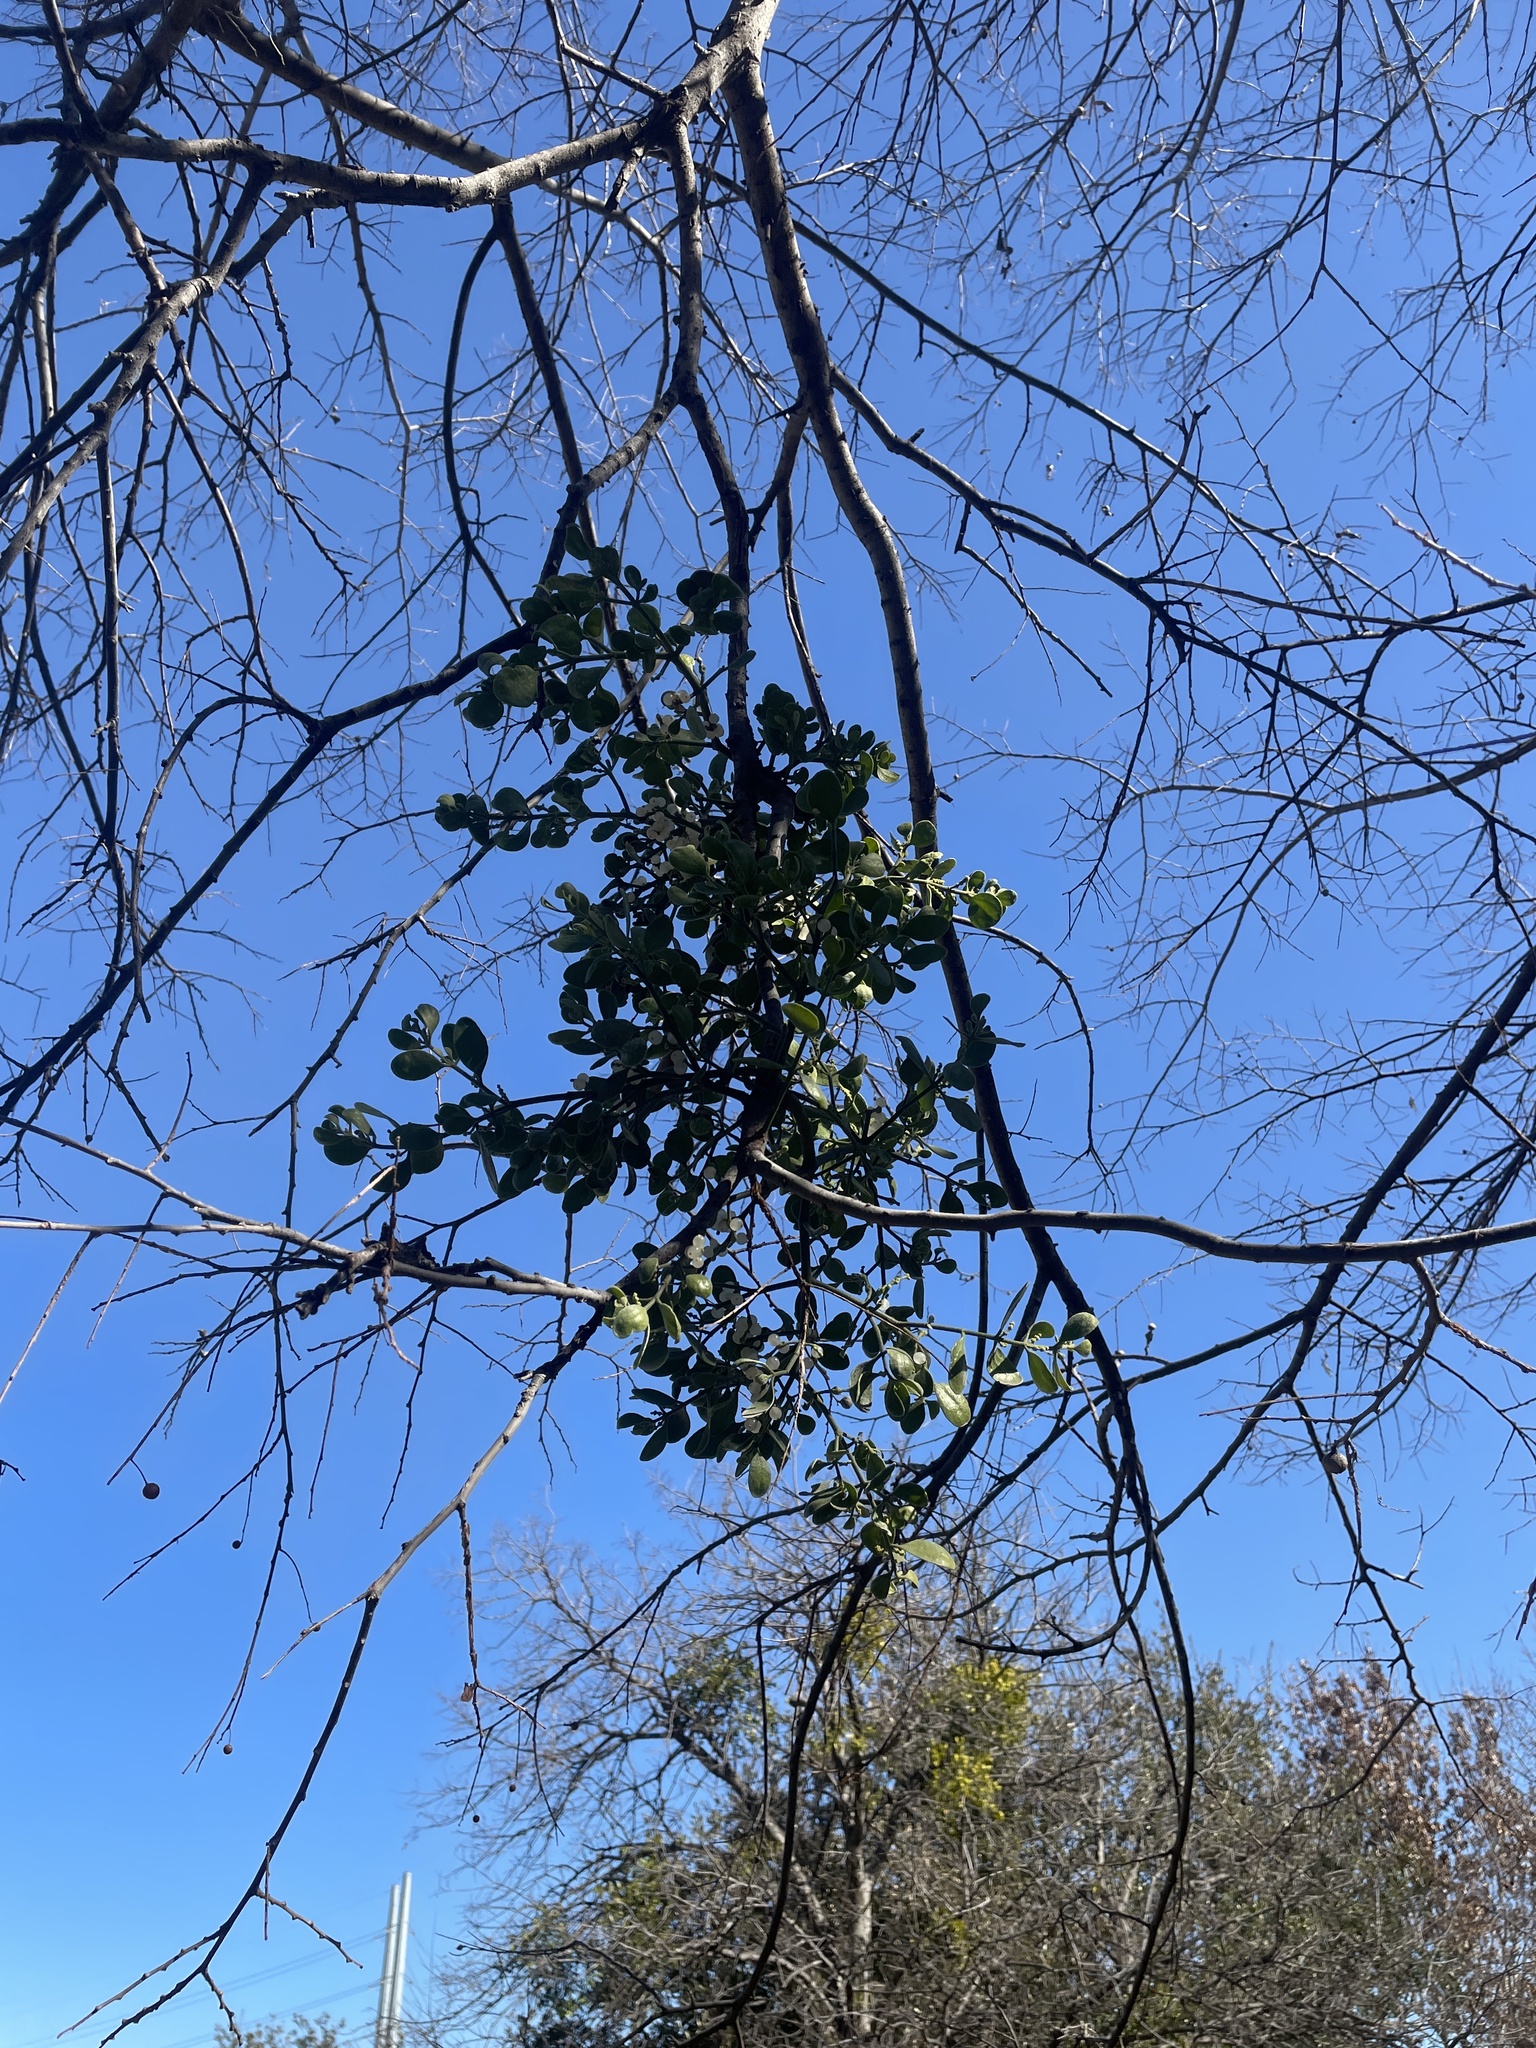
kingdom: Plantae
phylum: Tracheophyta
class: Magnoliopsida
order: Santalales
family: Viscaceae
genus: Phoradendron
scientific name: Phoradendron leucarpum
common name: Pacific mistletoe
